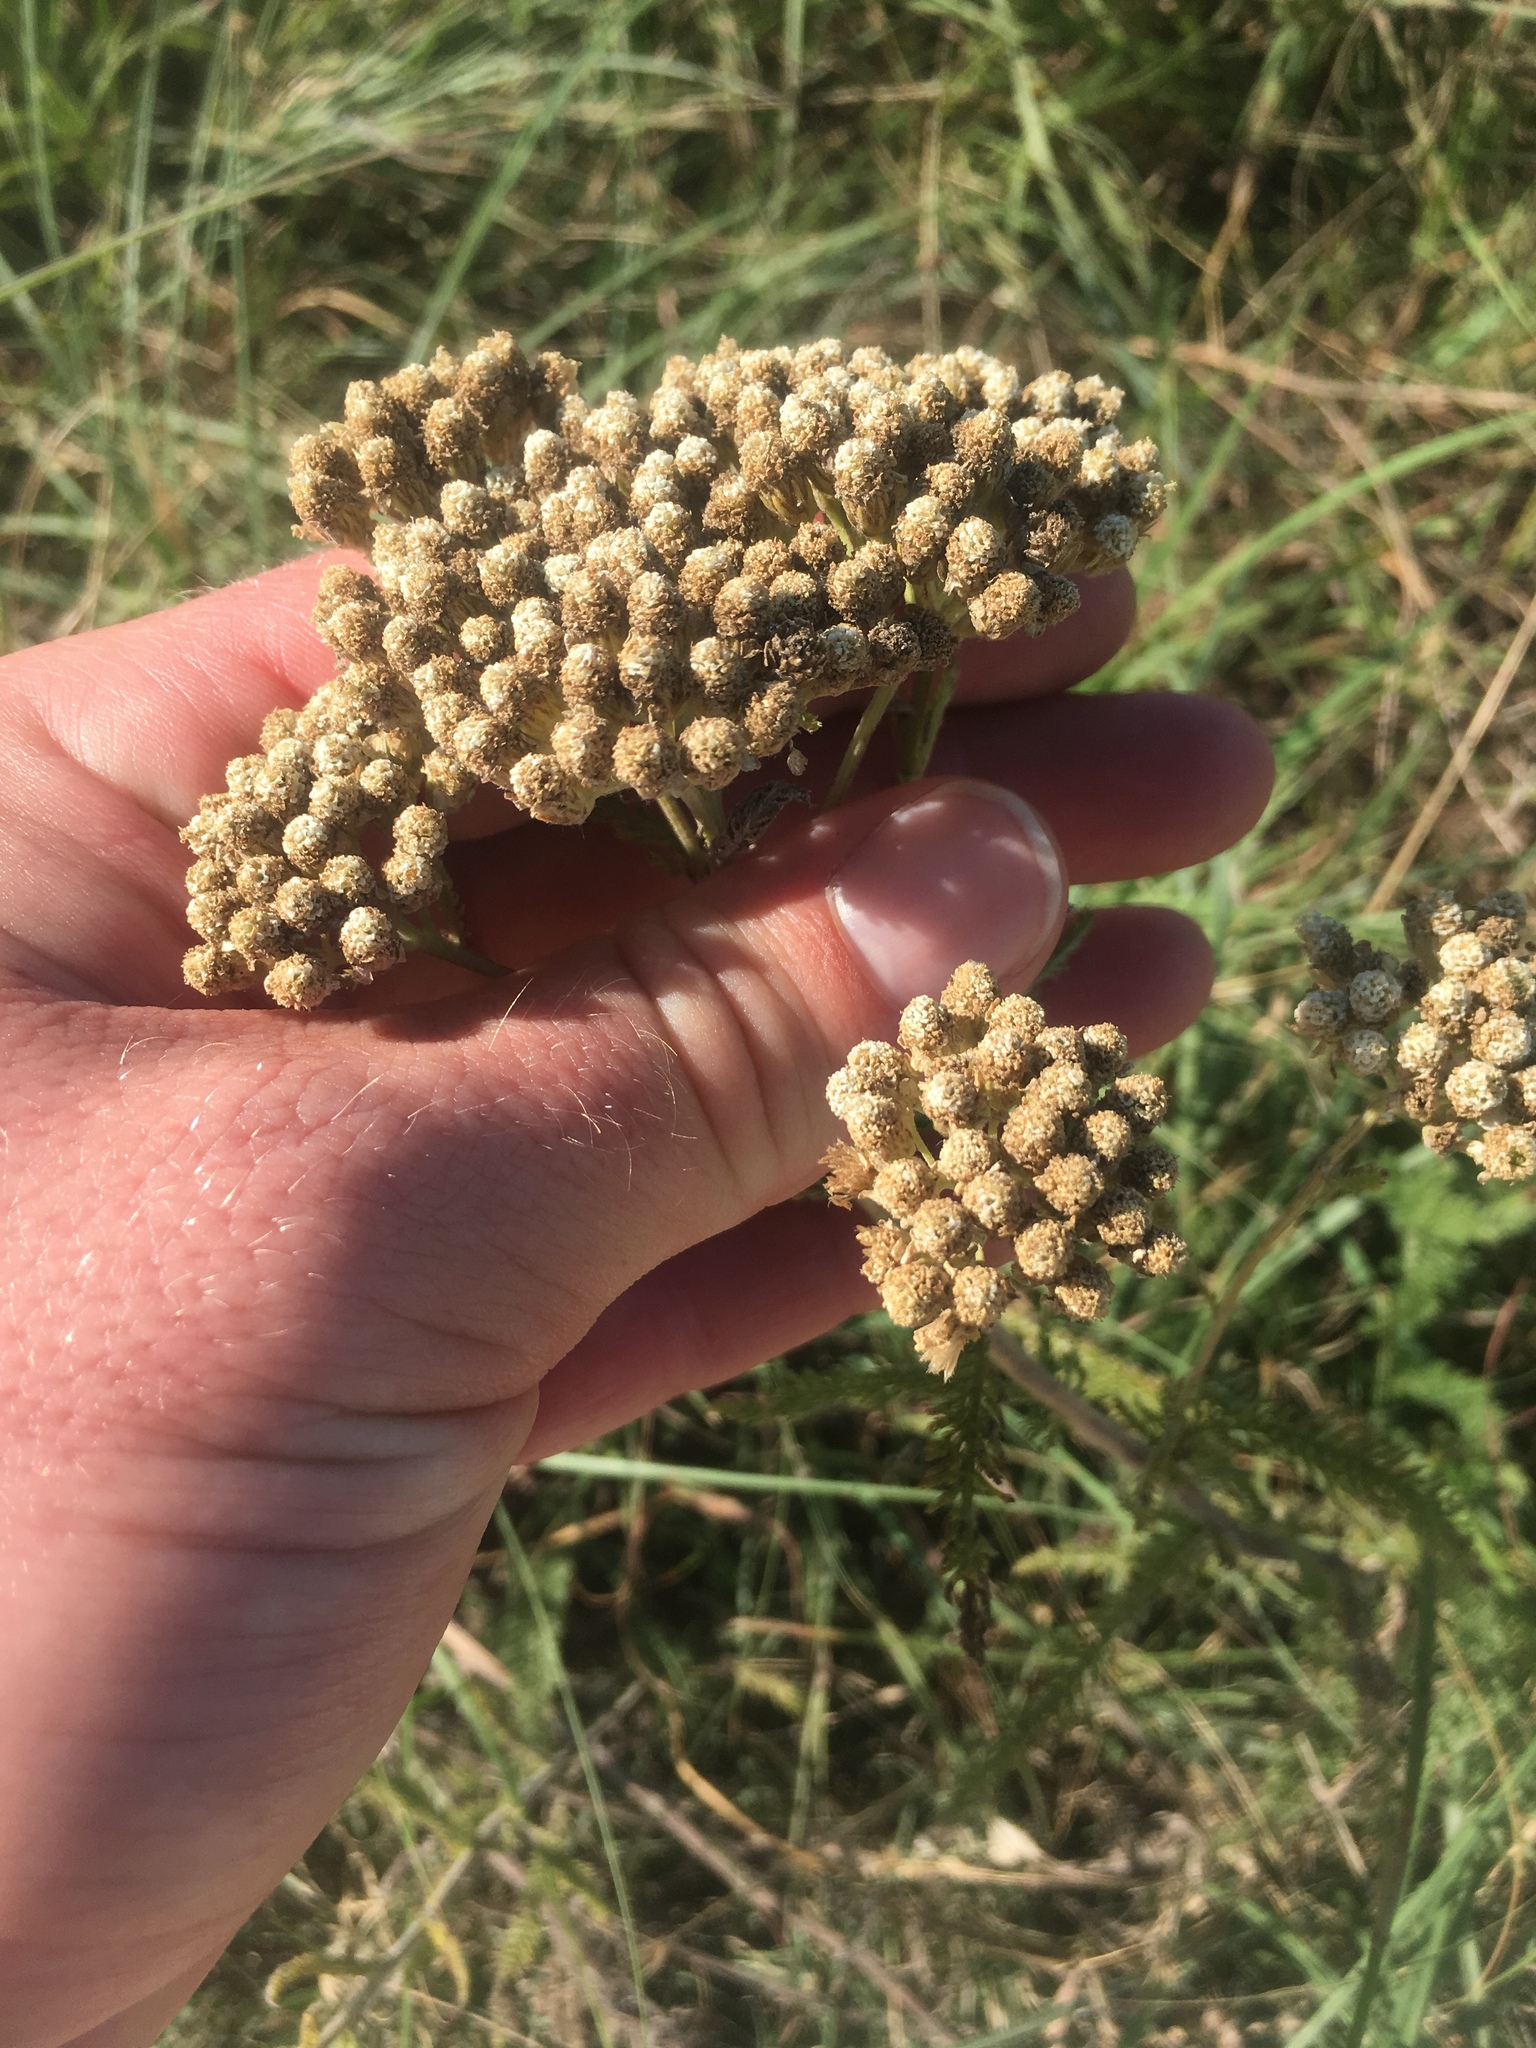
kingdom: Plantae
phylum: Tracheophyta
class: Magnoliopsida
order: Asterales
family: Asteraceae
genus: Achillea
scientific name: Achillea millefolium
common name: Yarrow
